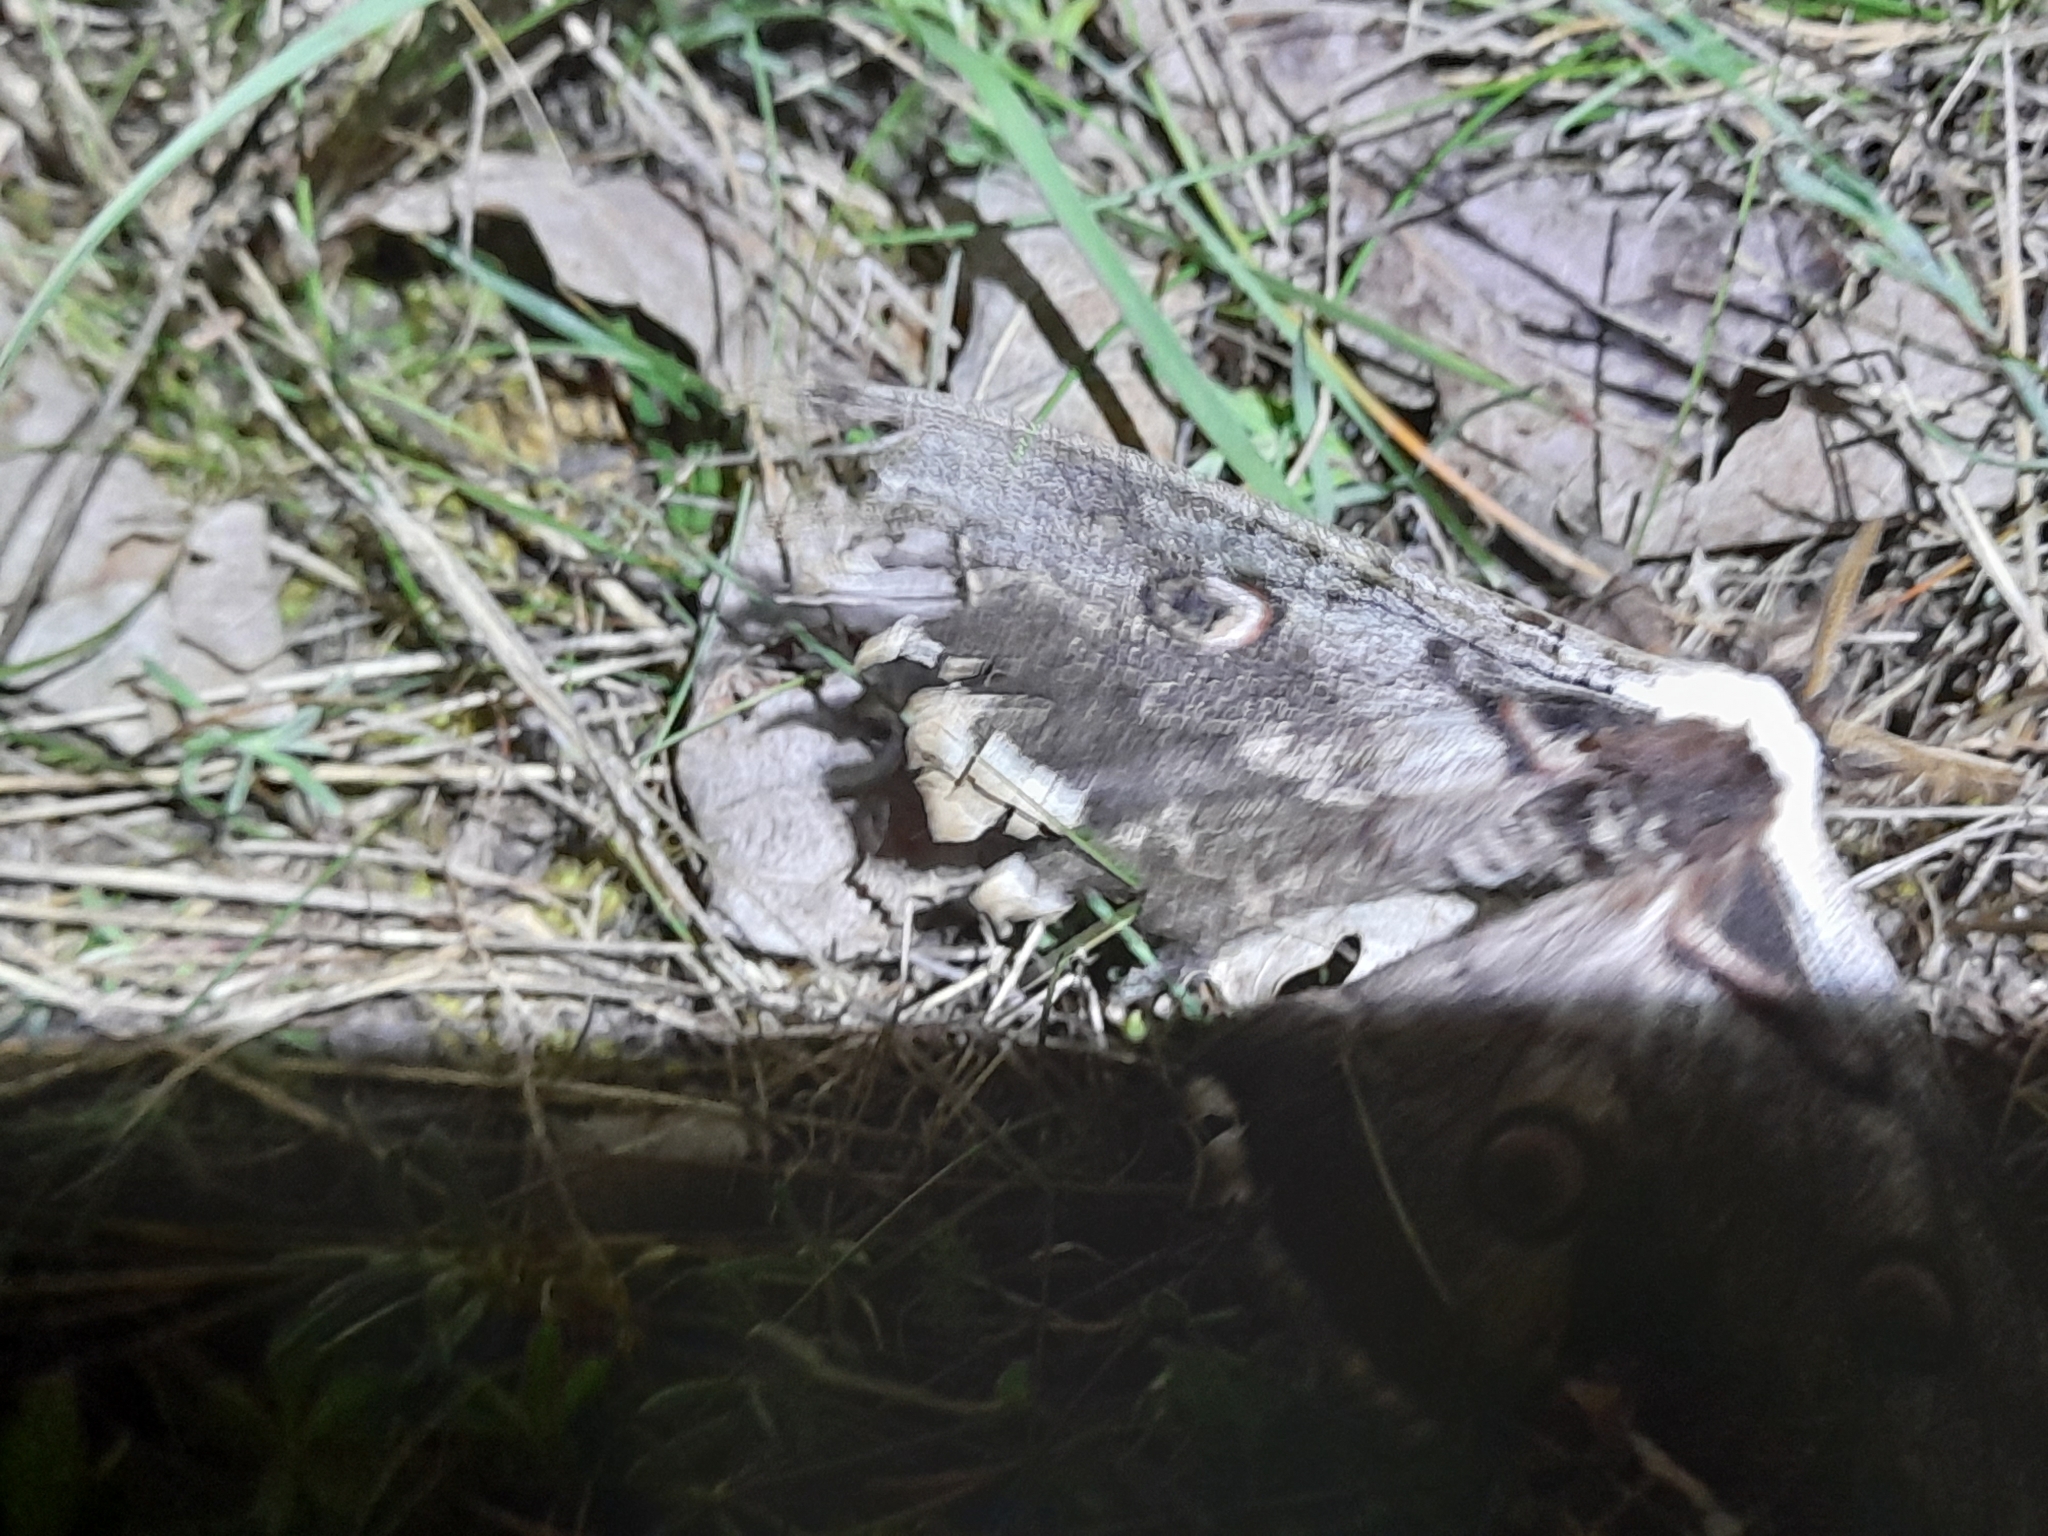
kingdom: Animalia
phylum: Arthropoda
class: Insecta
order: Lepidoptera
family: Saturniidae
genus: Saturnia
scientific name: Saturnia pyri
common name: Great peacock moth
